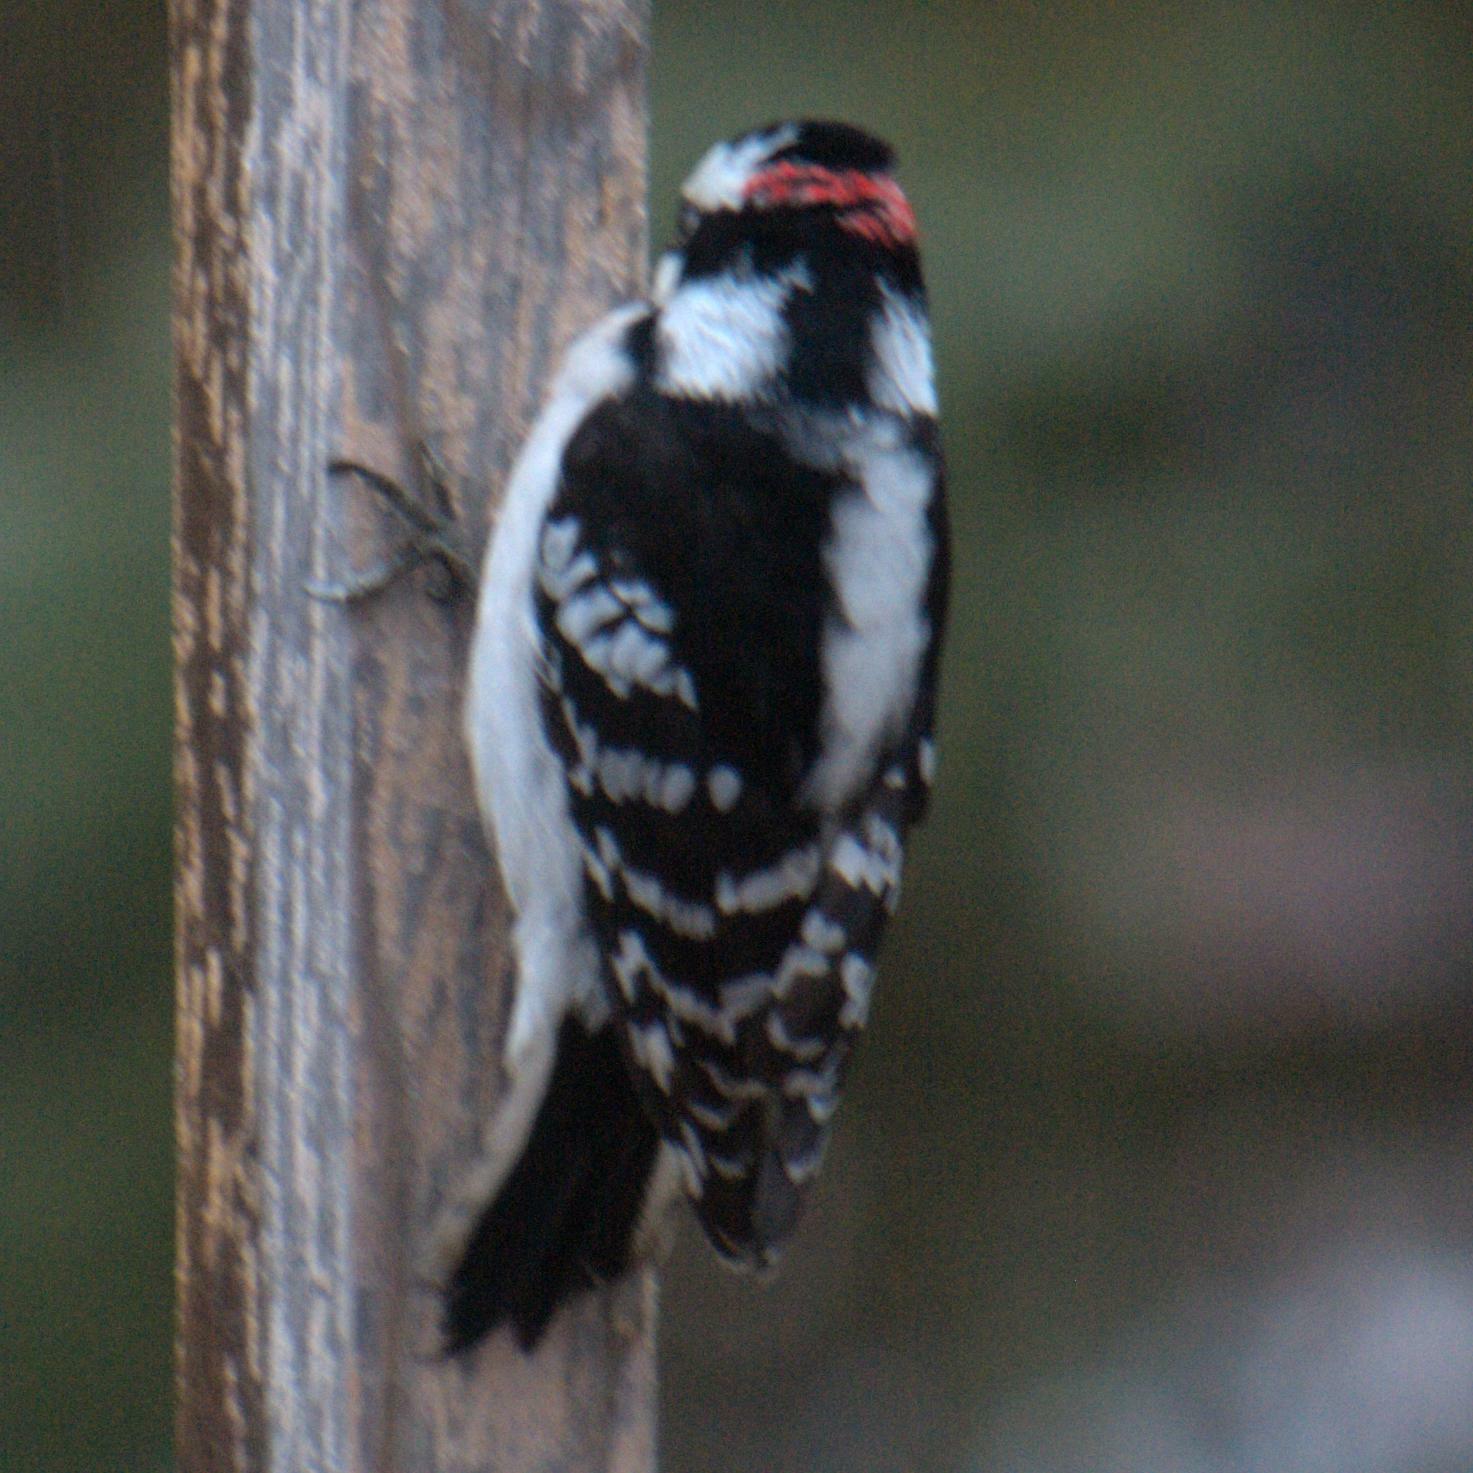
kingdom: Animalia
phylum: Chordata
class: Aves
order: Piciformes
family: Picidae
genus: Dryobates
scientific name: Dryobates pubescens
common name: Downy woodpecker
